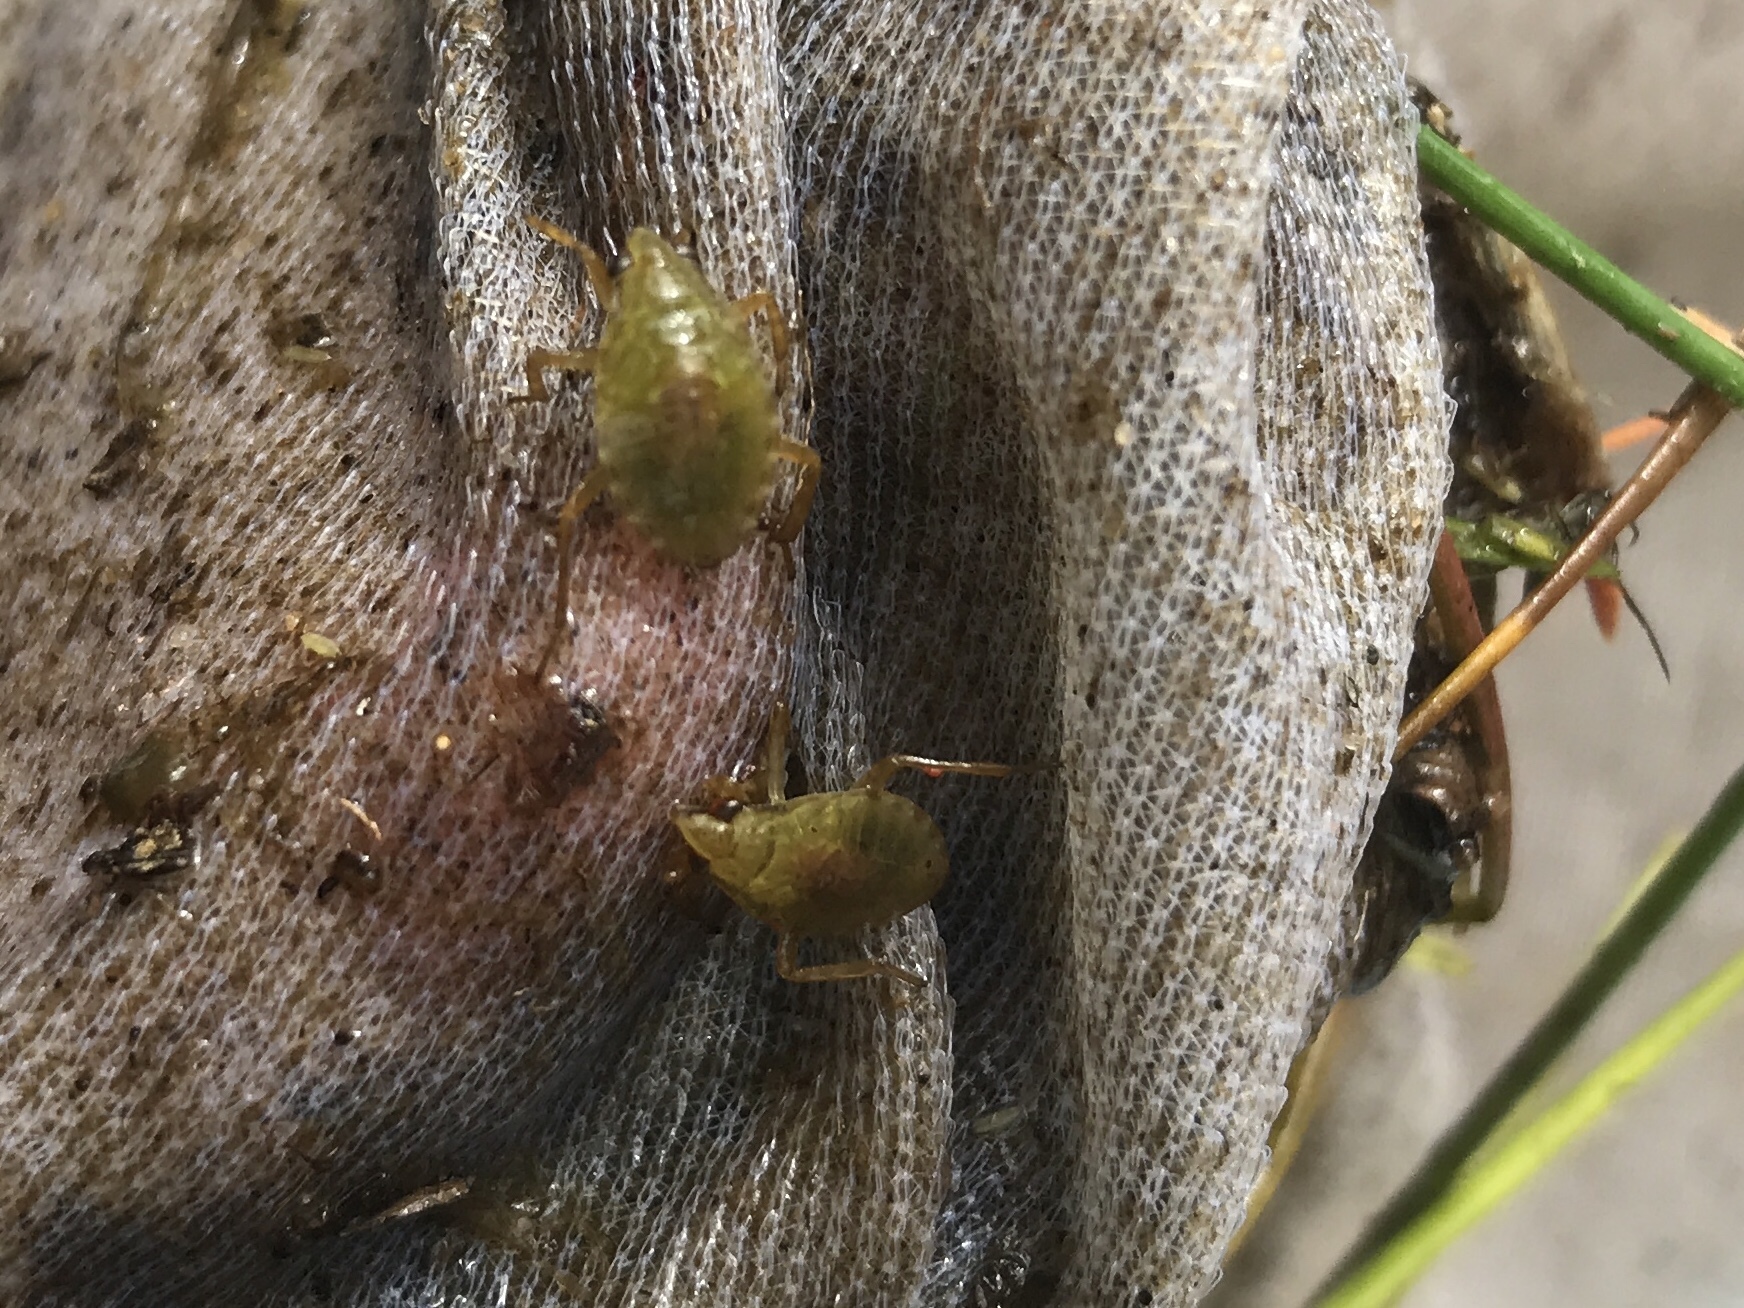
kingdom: Animalia
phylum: Arthropoda
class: Insecta
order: Hemiptera
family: Belostomatidae
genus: Belostoma
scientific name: Belostoma
